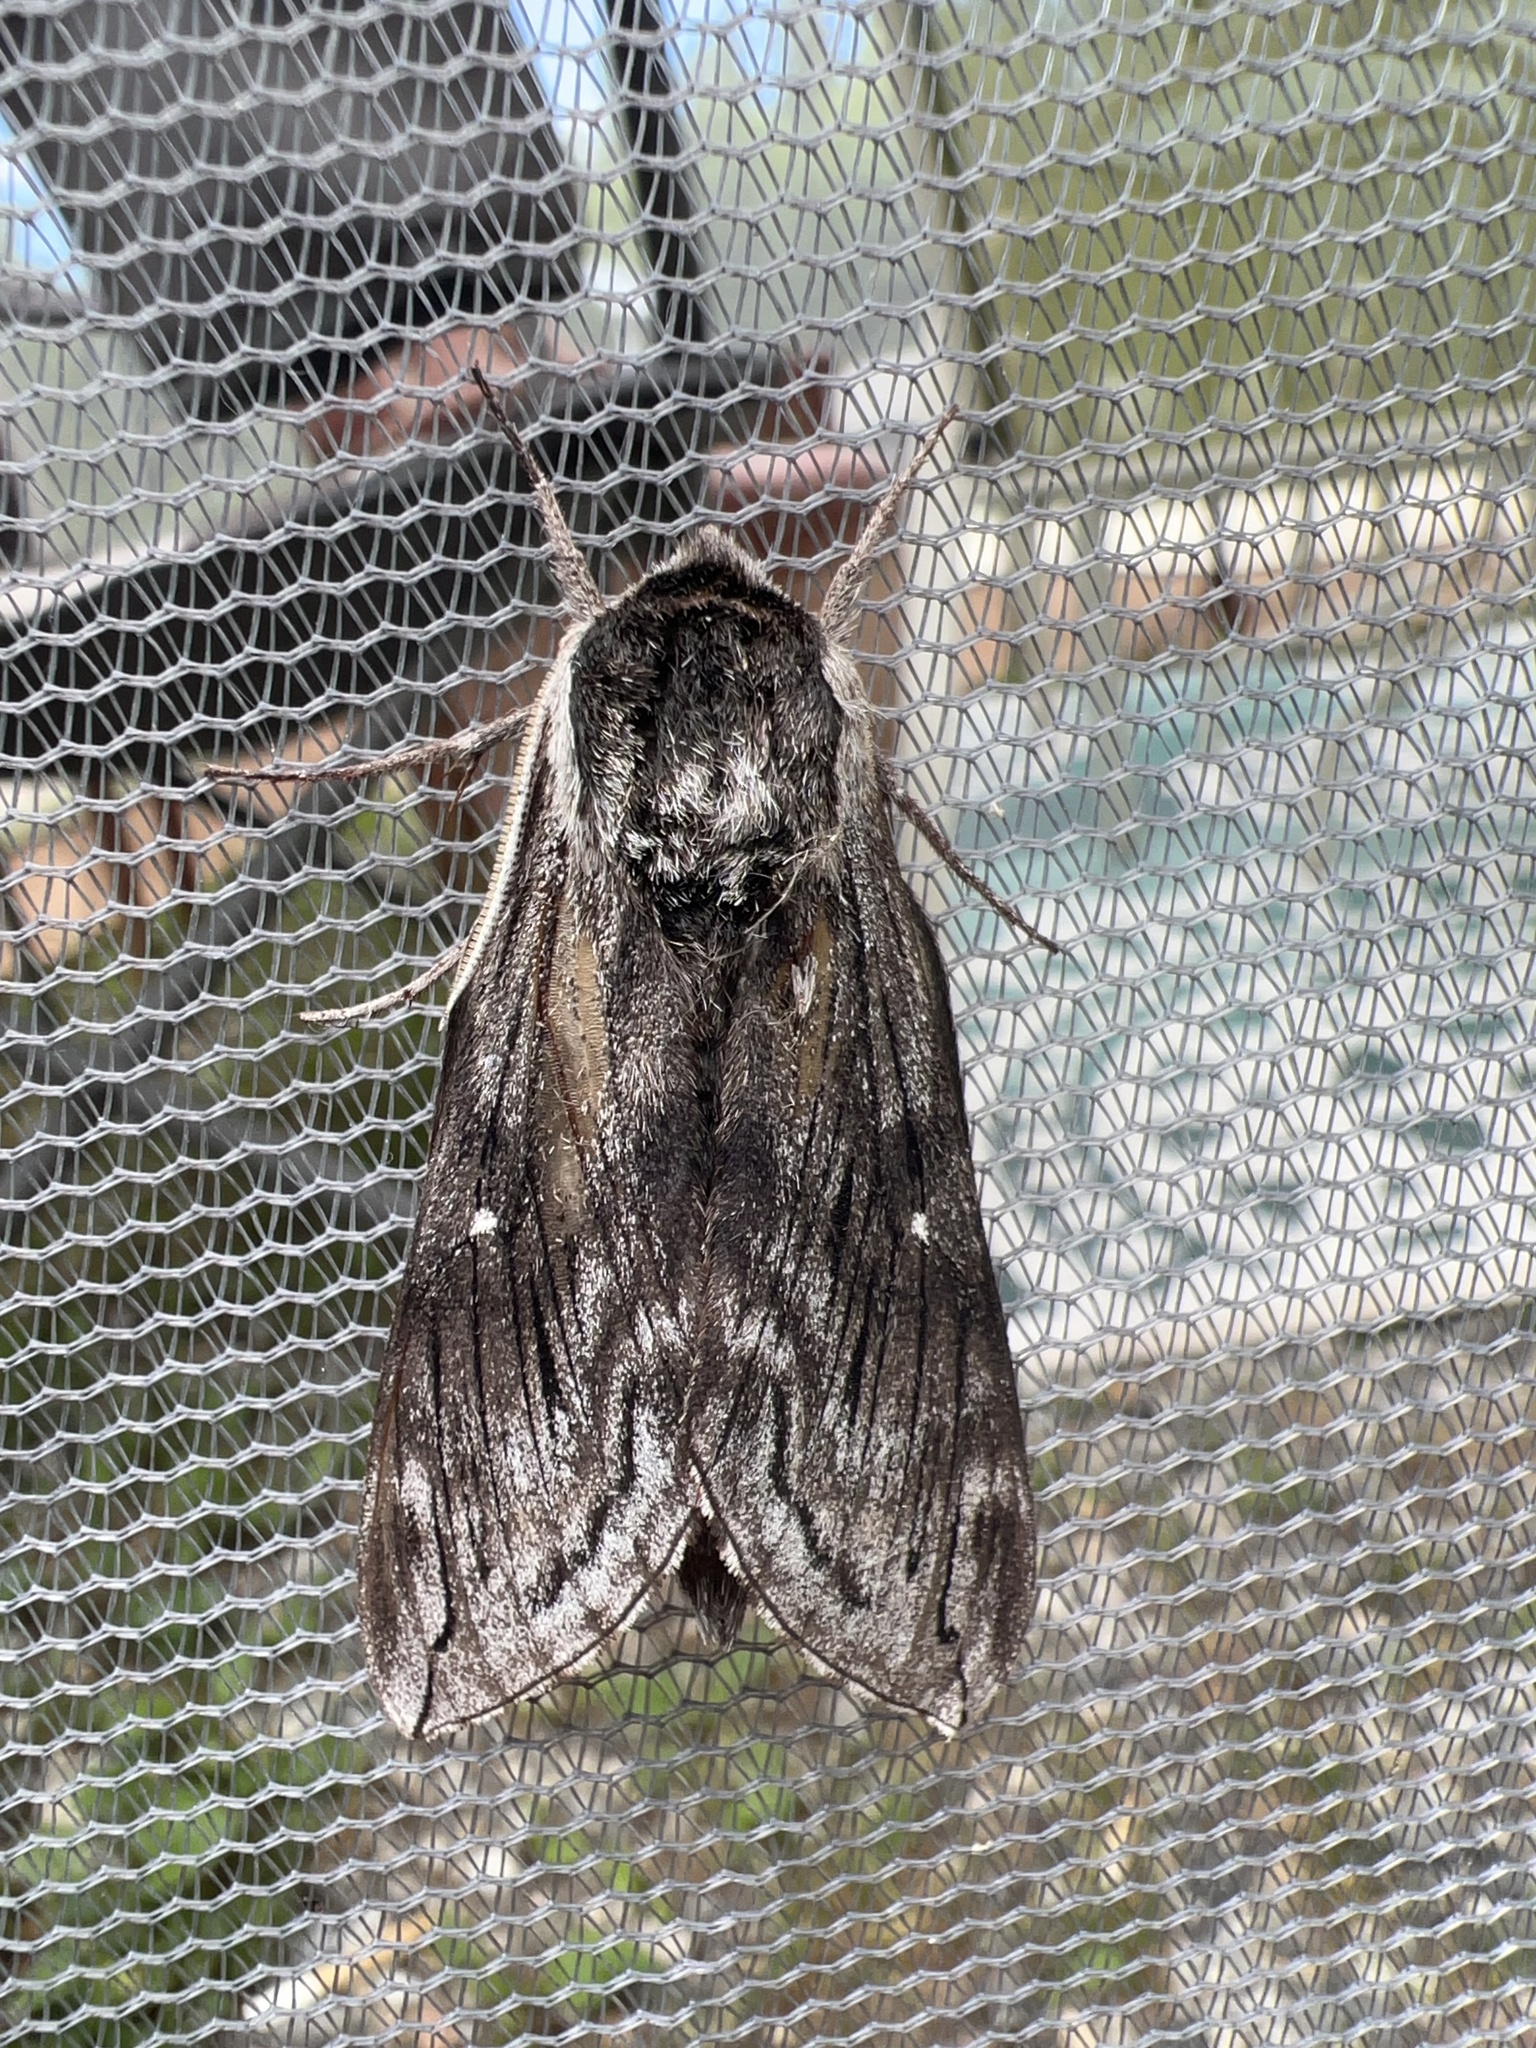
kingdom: Animalia
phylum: Arthropoda
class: Insecta
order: Lepidoptera
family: Sphingidae
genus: Sphinx
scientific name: Sphinx poecila
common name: Northern apple sphinx
